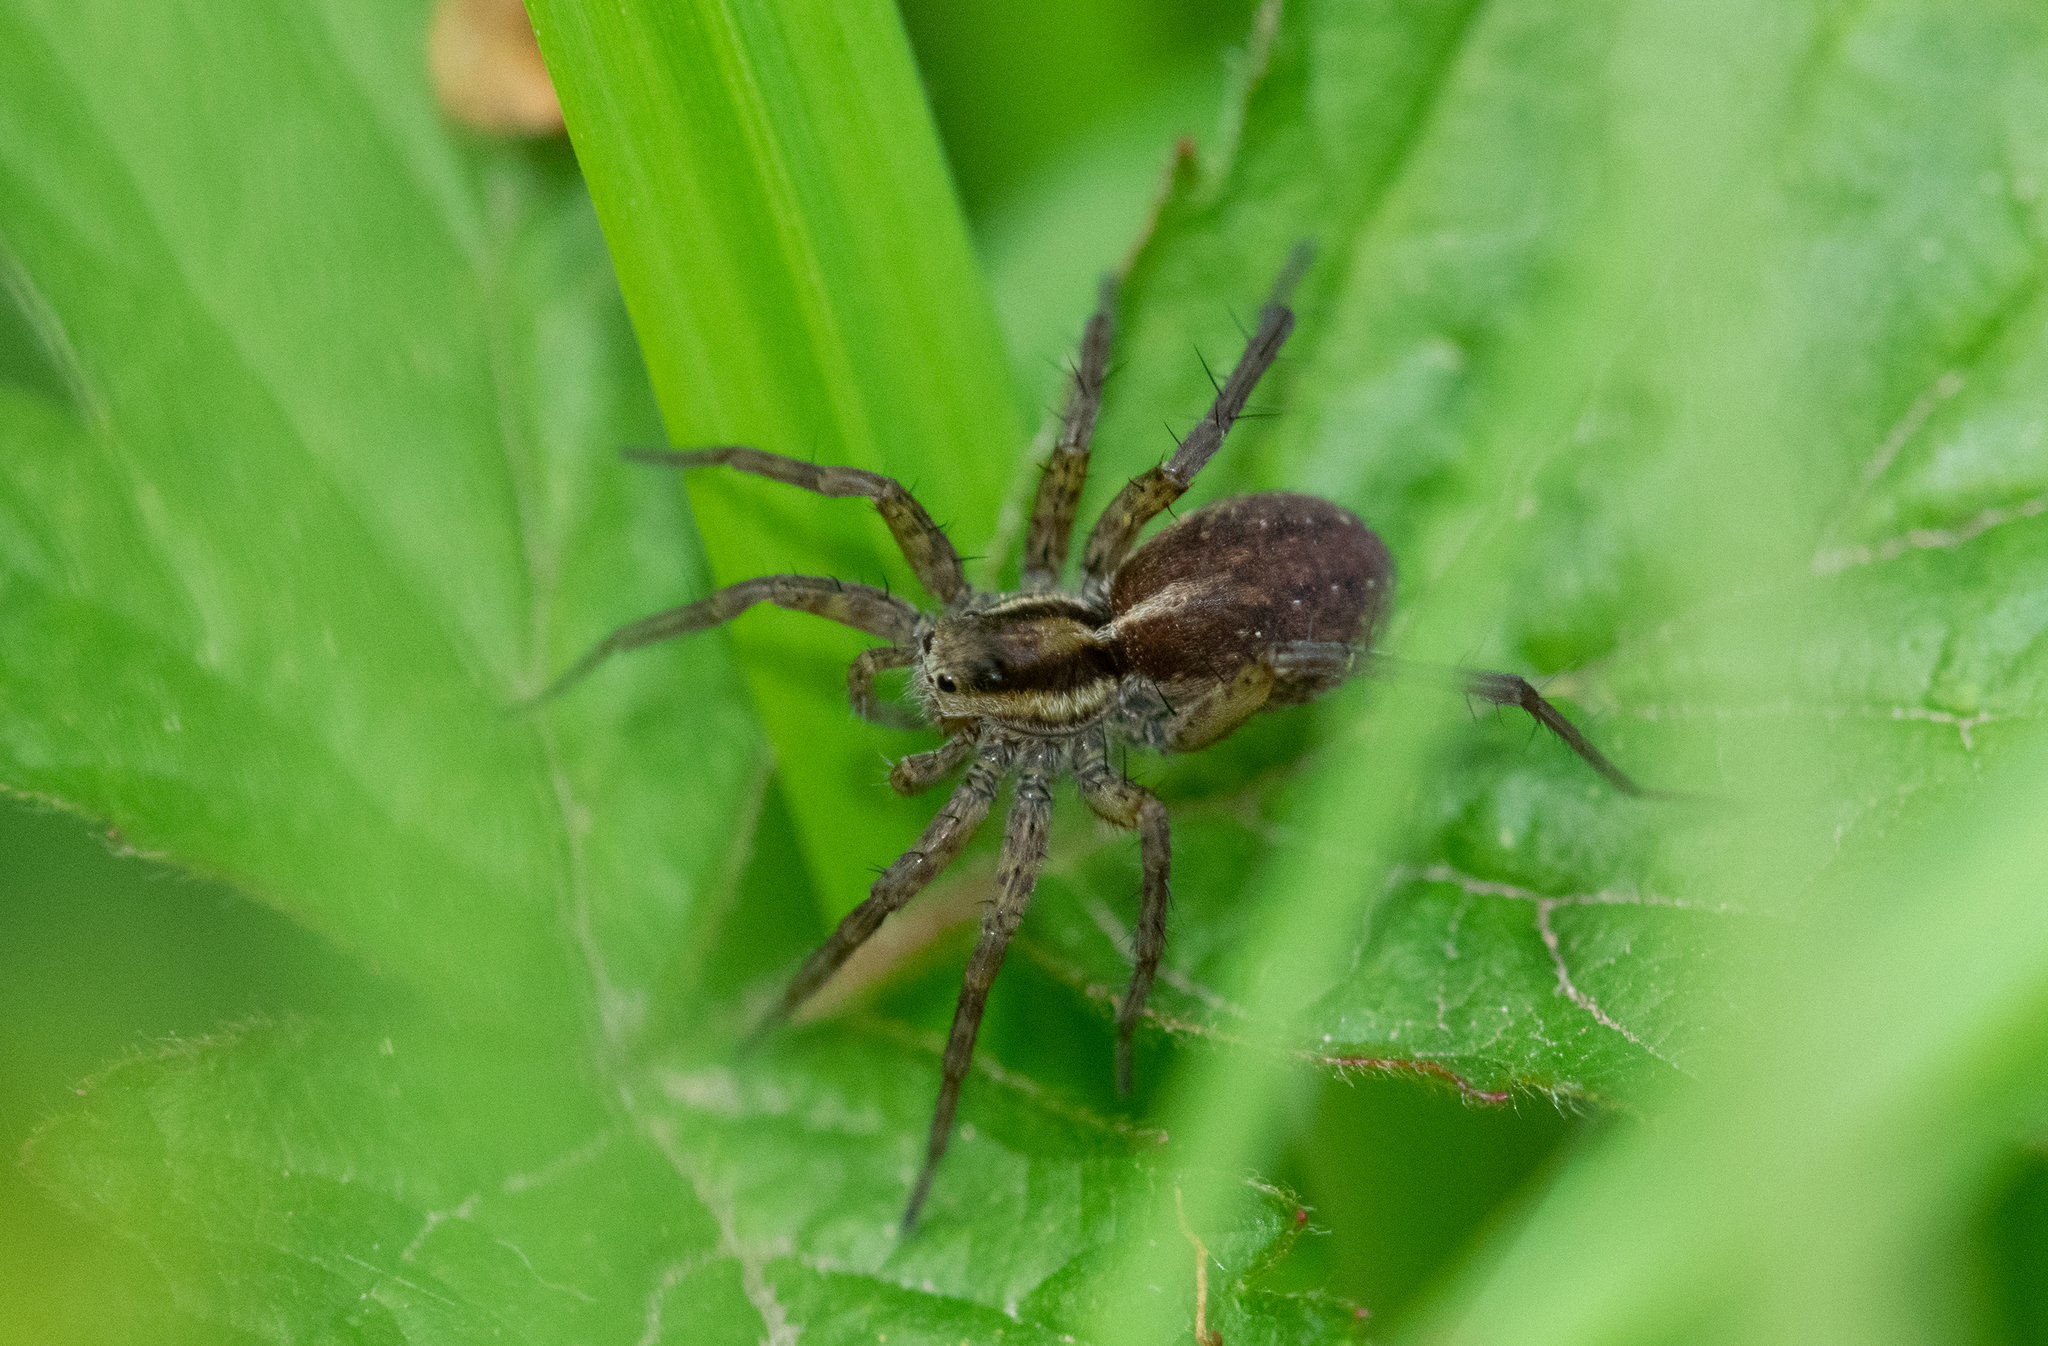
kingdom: Animalia
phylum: Arthropoda
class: Arachnida
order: Araneae
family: Lycosidae
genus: Pardosa
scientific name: Pardosa nigriceps
